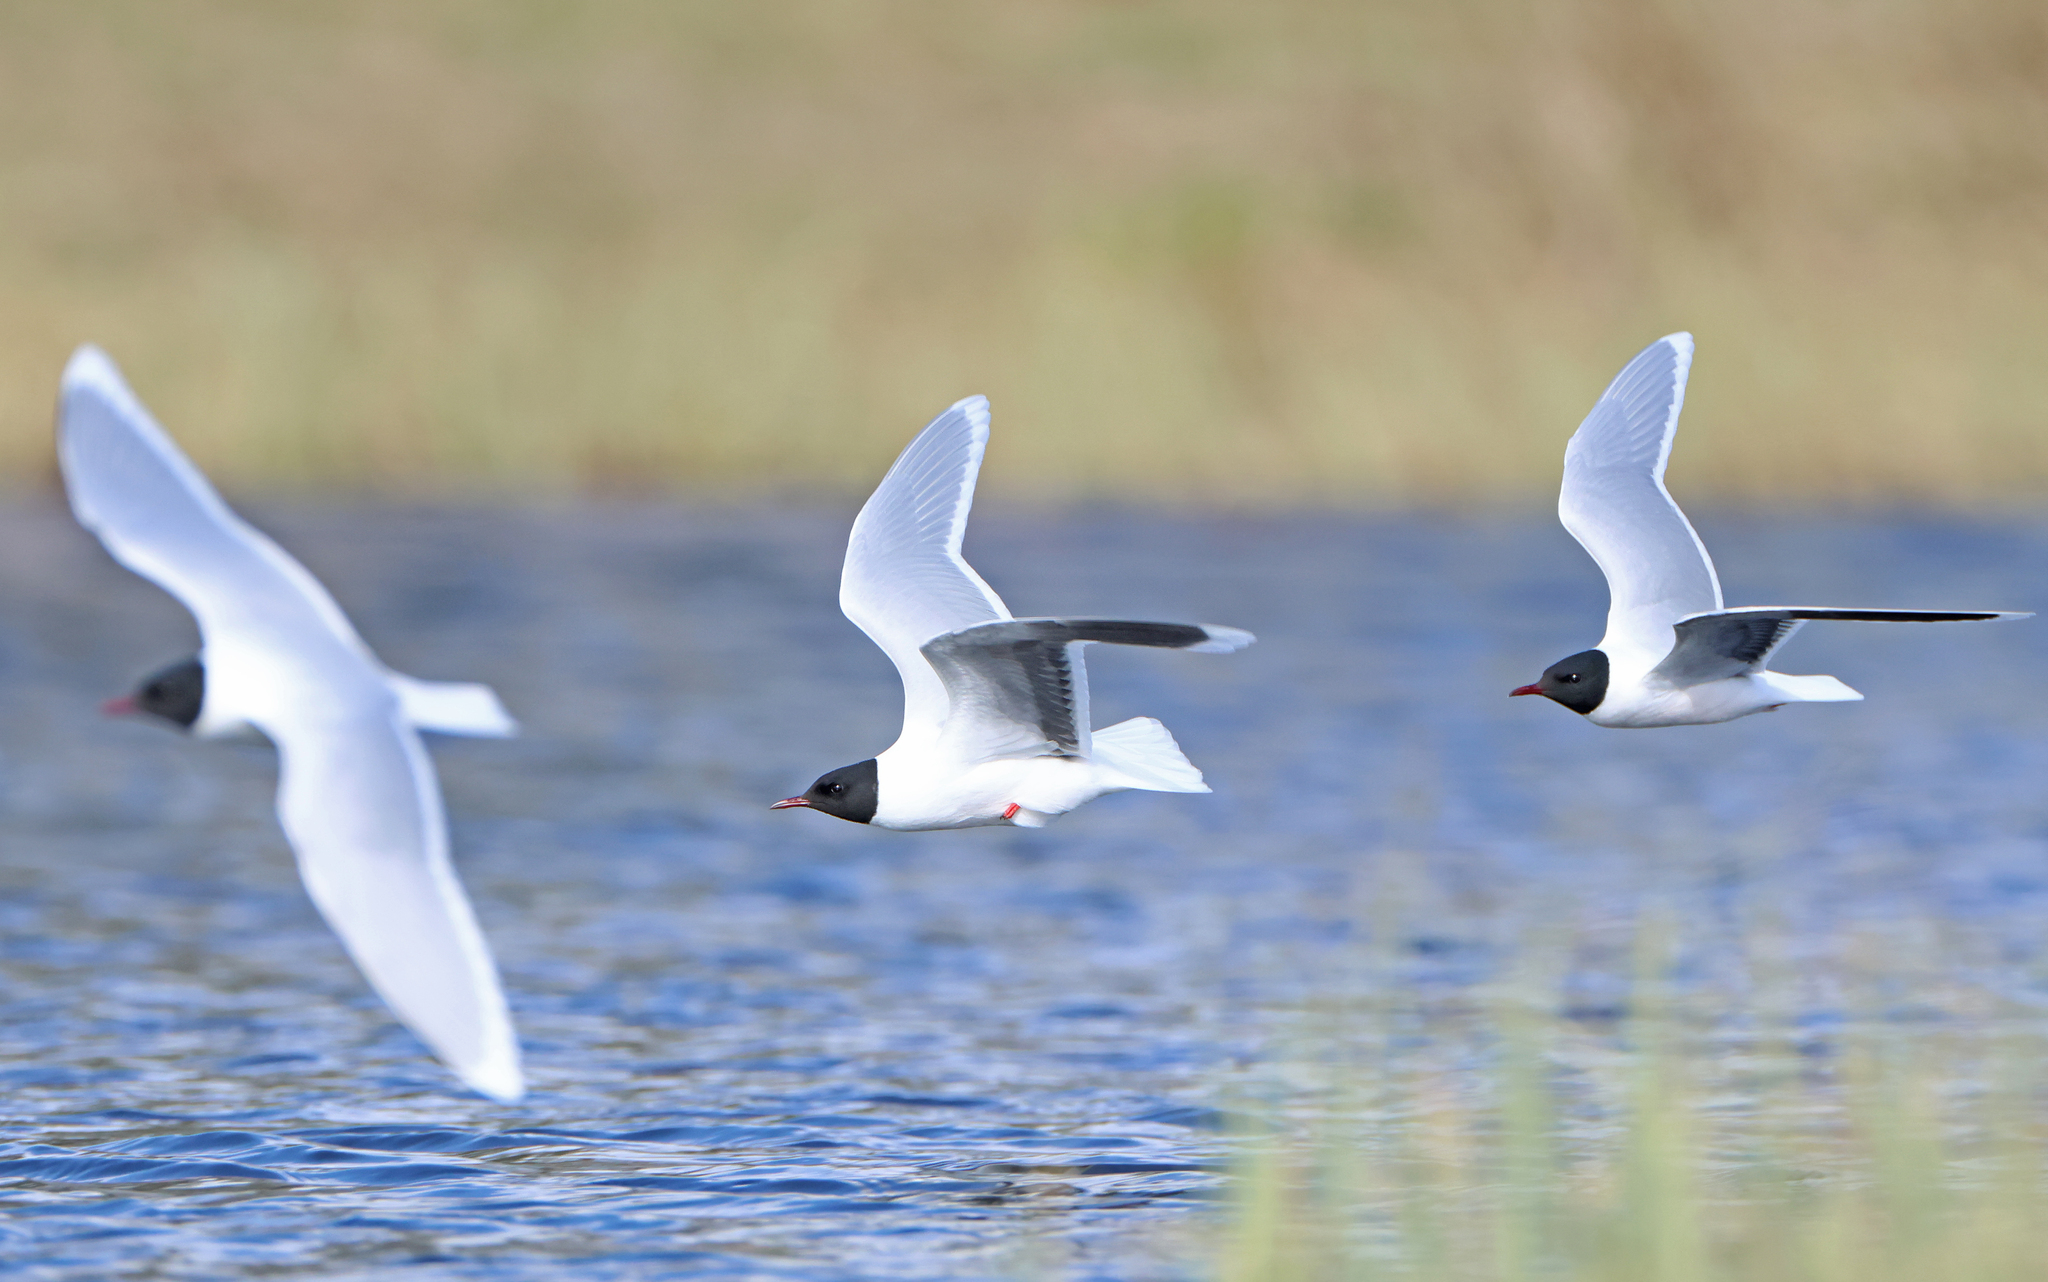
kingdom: Animalia
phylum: Chordata
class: Aves
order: Charadriiformes
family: Laridae
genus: Hydrocoloeus
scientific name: Hydrocoloeus minutus
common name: Little gull
